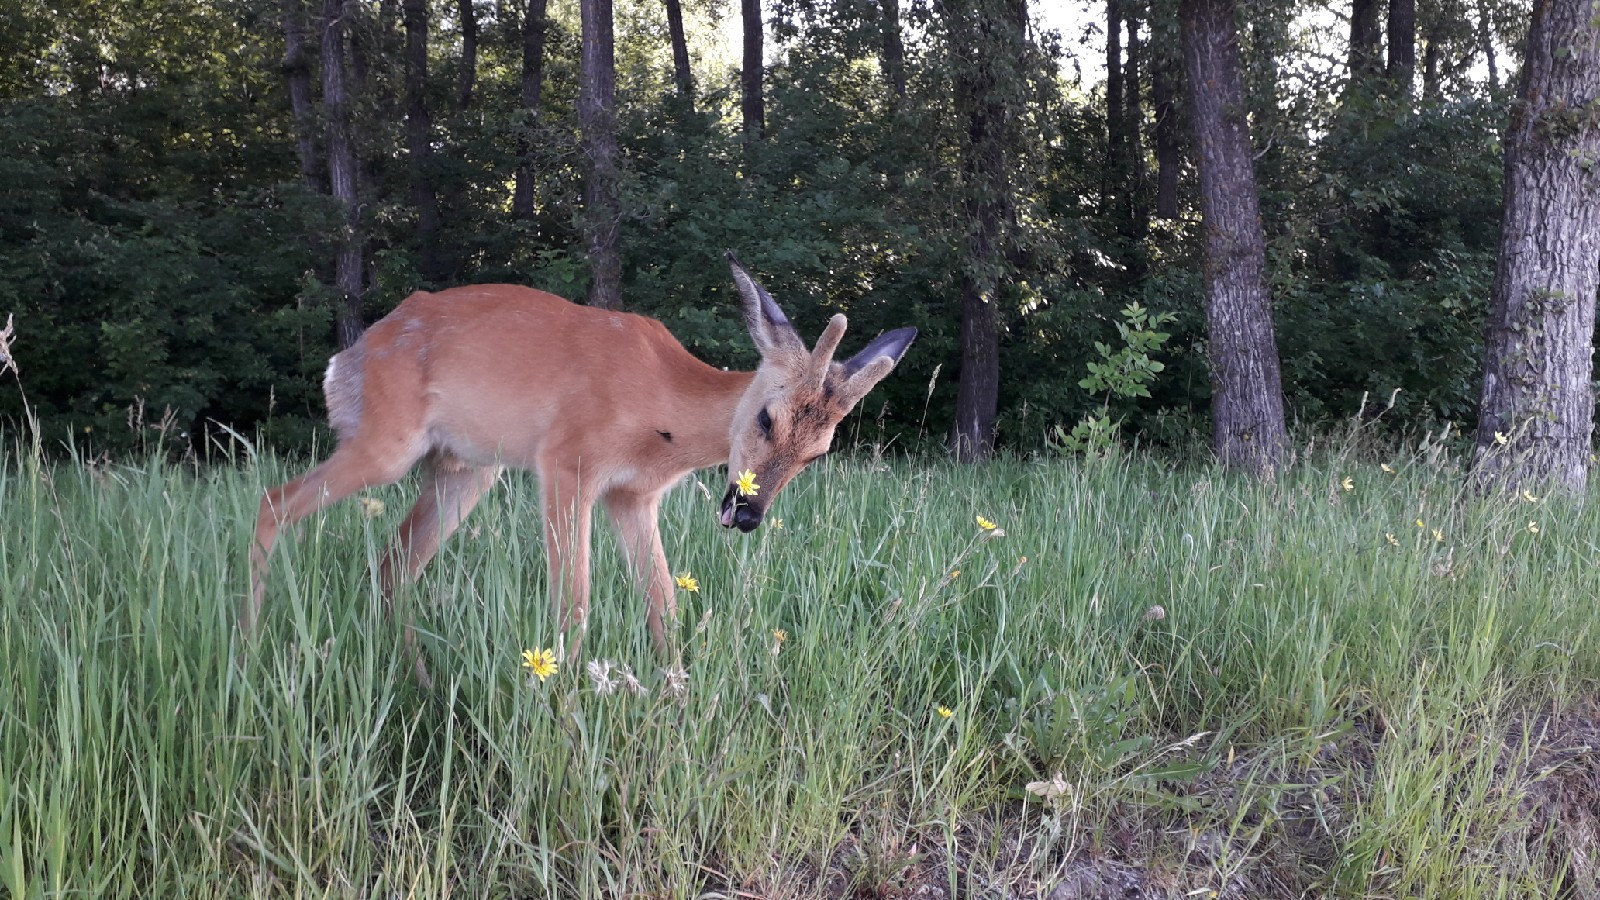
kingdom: Animalia
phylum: Chordata
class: Mammalia
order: Artiodactyla
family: Cervidae
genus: Capreolus
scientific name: Capreolus pygargus
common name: Siberian roe
